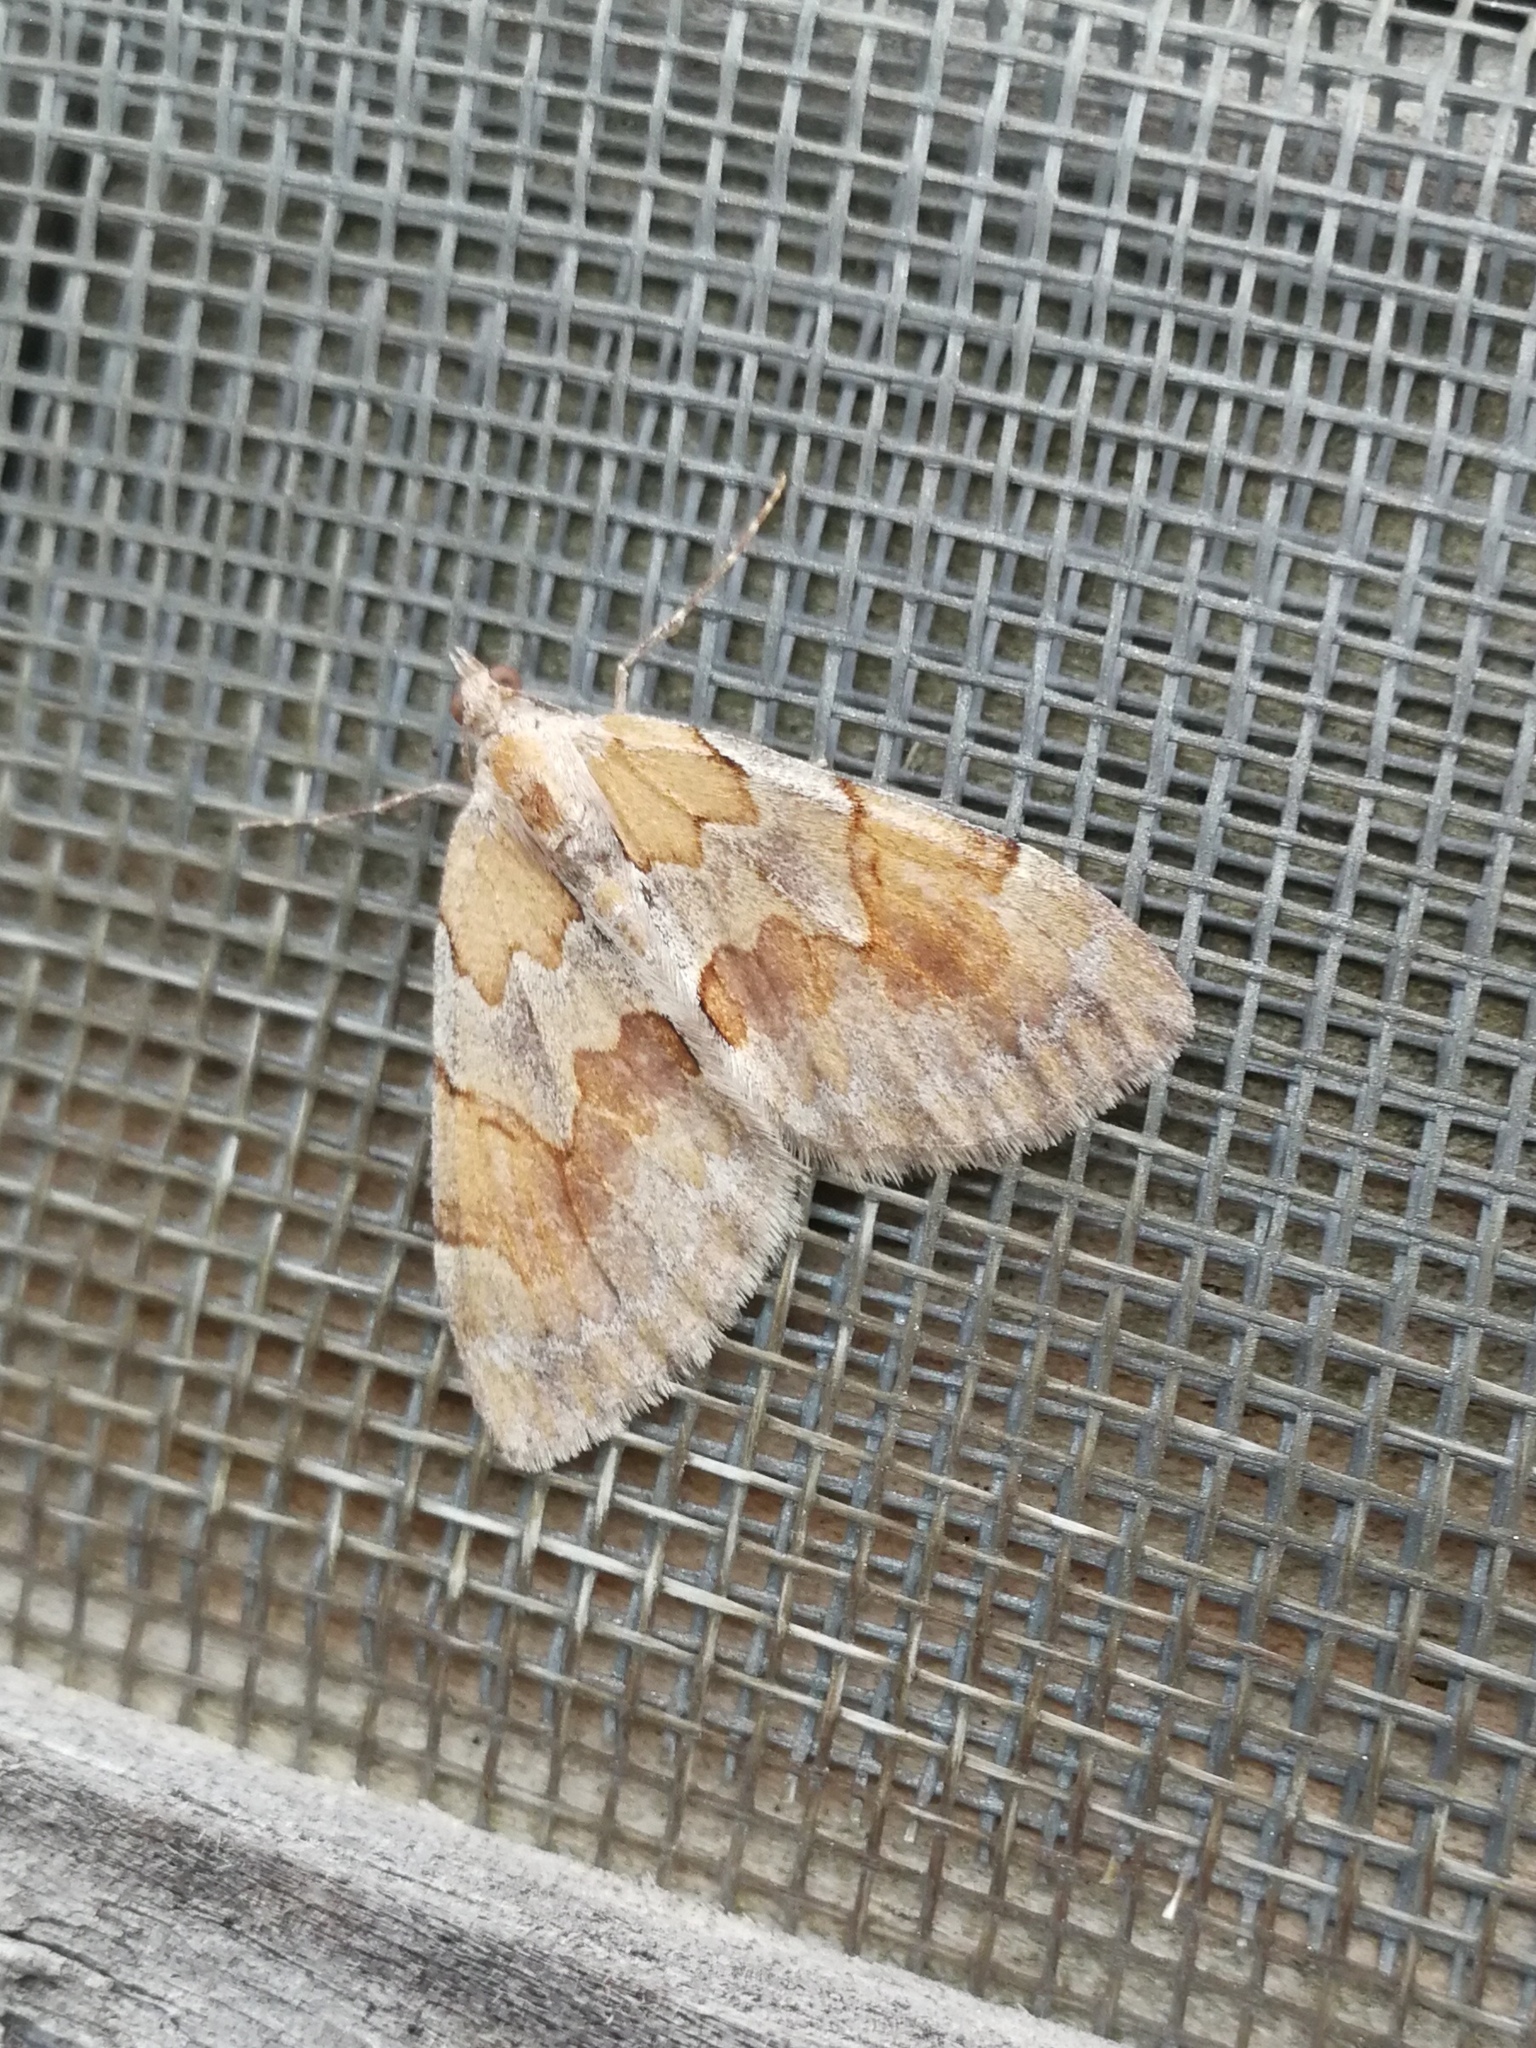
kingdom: Animalia
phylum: Arthropoda
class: Insecta
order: Lepidoptera
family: Geometridae
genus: Pennithera
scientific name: Pennithera firmata
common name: Pine carpet
